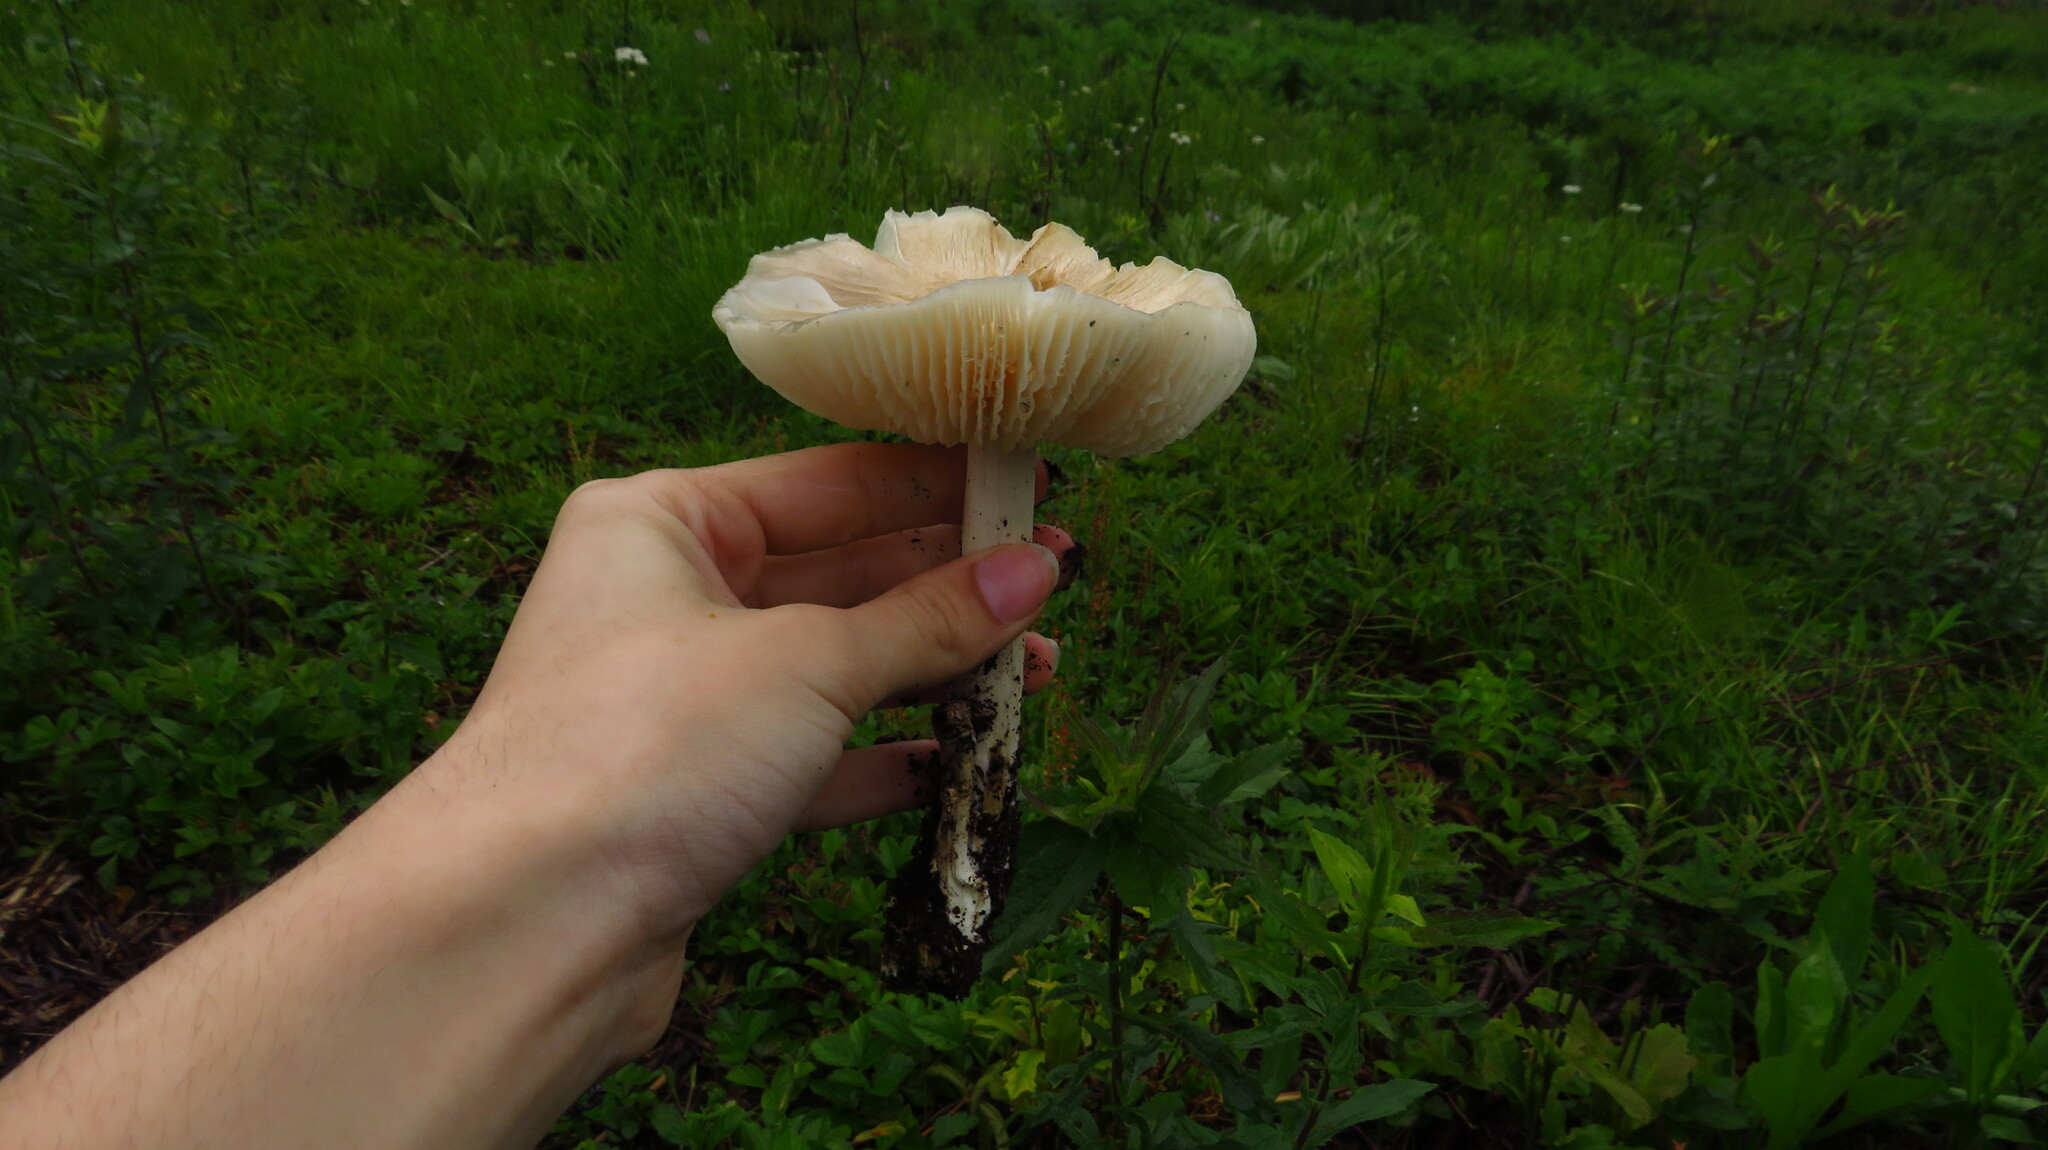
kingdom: Fungi
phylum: Basidiomycota
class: Agaricomycetes
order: Agaricales
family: Tricholomataceae
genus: Megacollybia
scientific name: Megacollybia rodmanii
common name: Eastern american platterful mushroom
